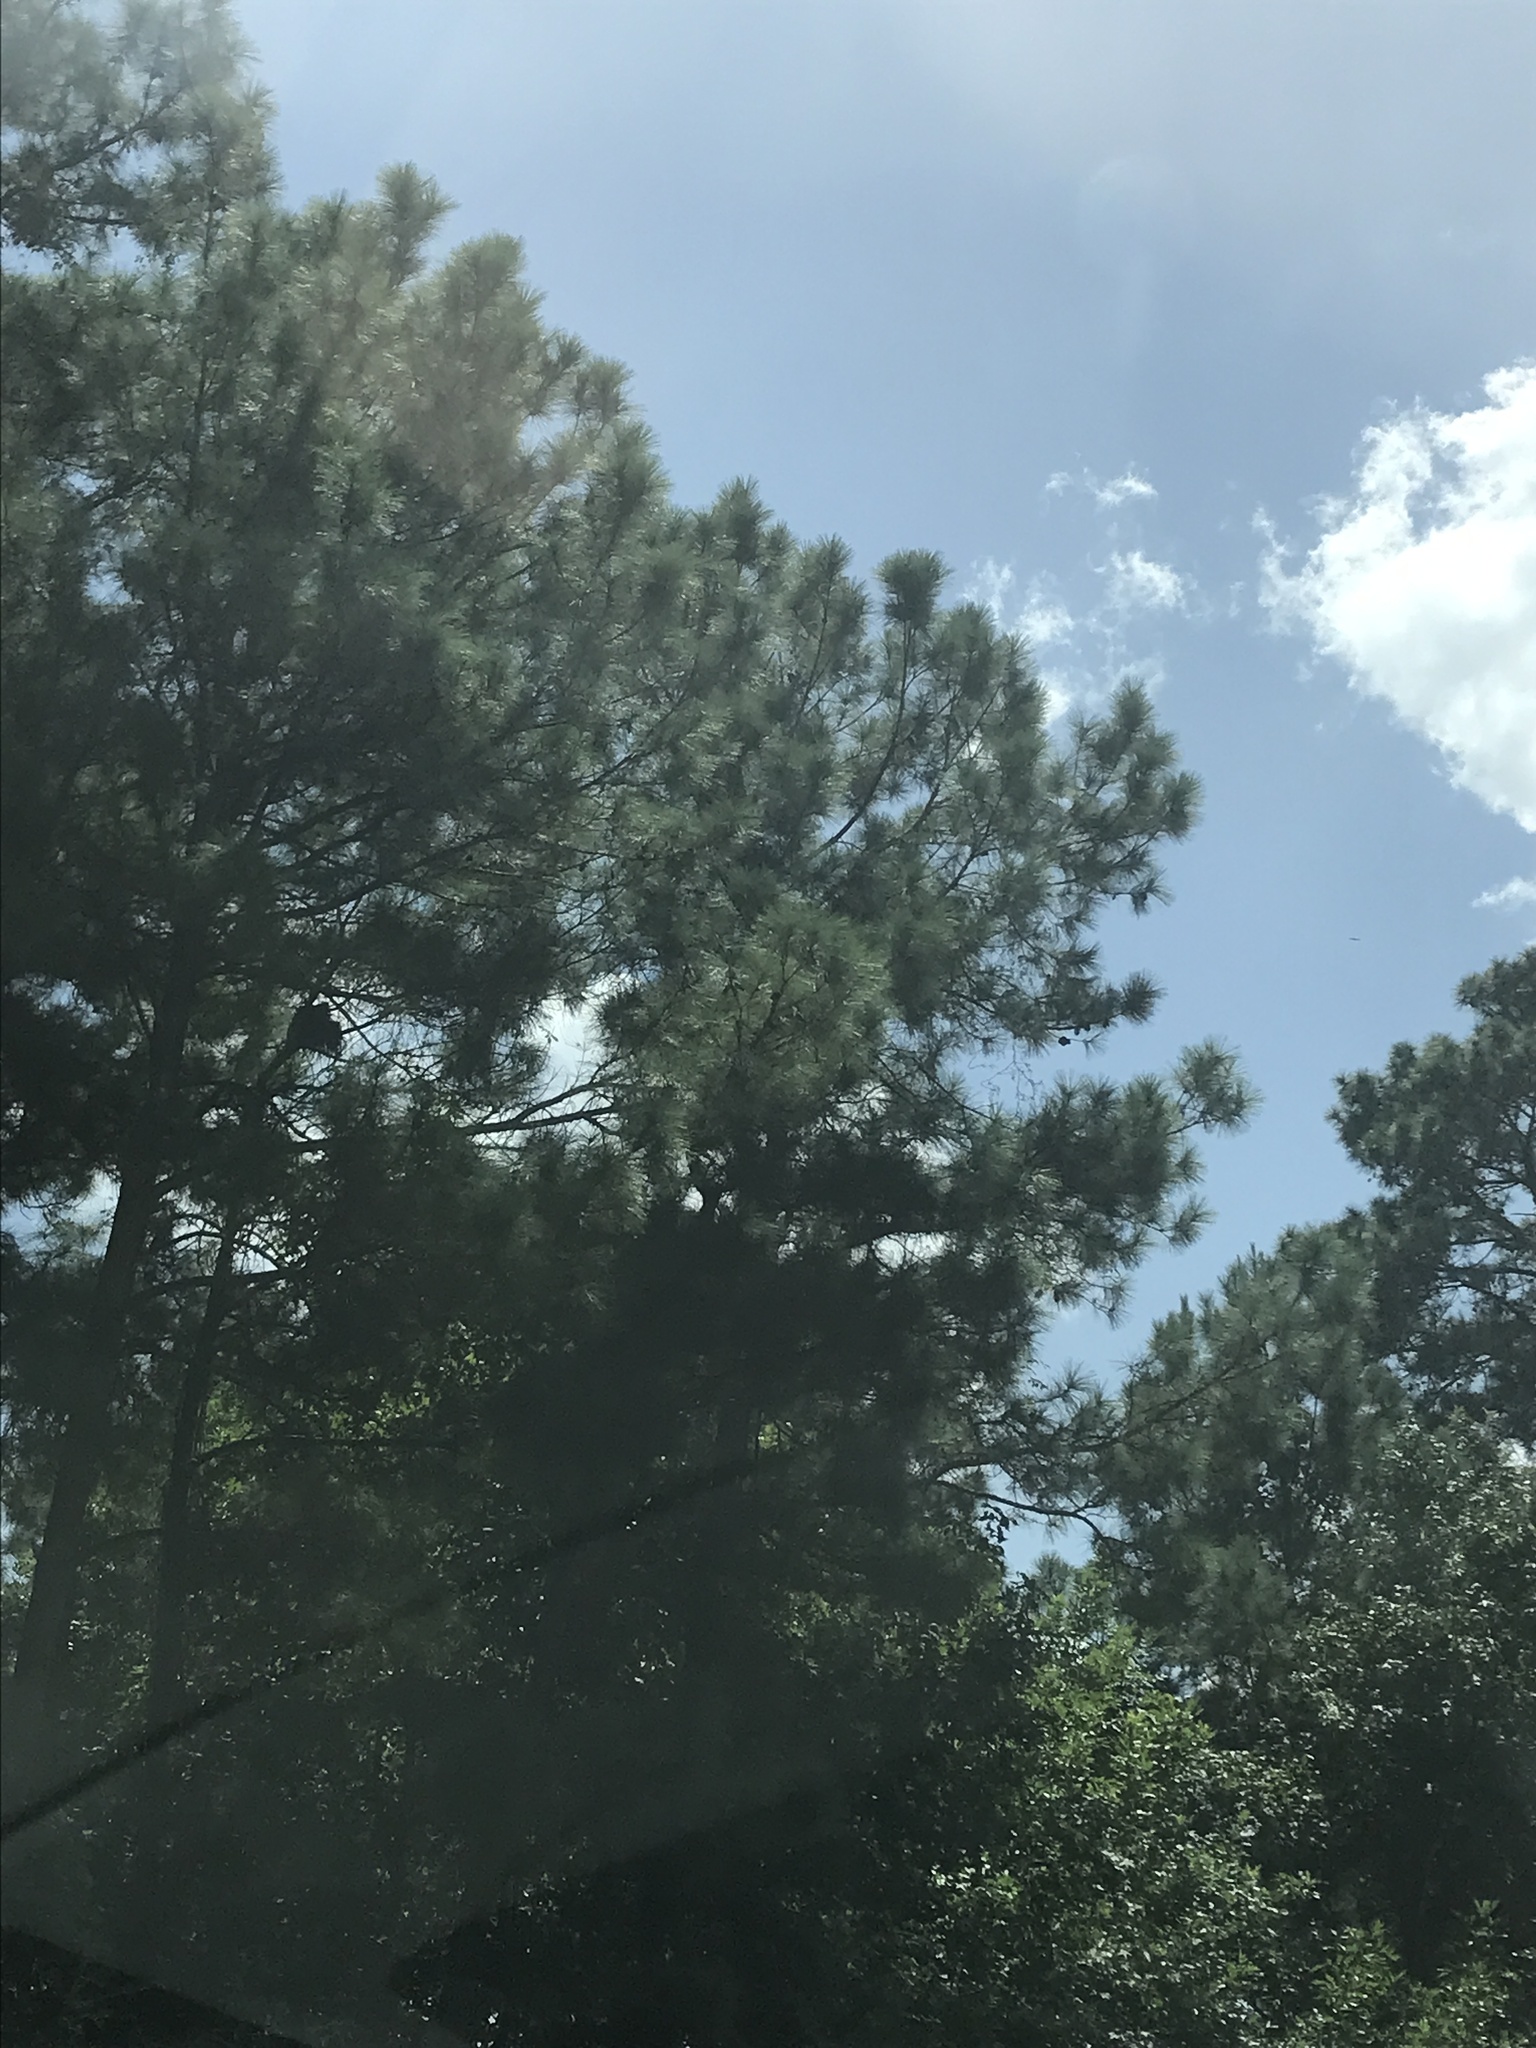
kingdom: Plantae
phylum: Tracheophyta
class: Pinopsida
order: Pinales
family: Pinaceae
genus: Pinus
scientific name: Pinus taeda
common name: Loblolly pine
